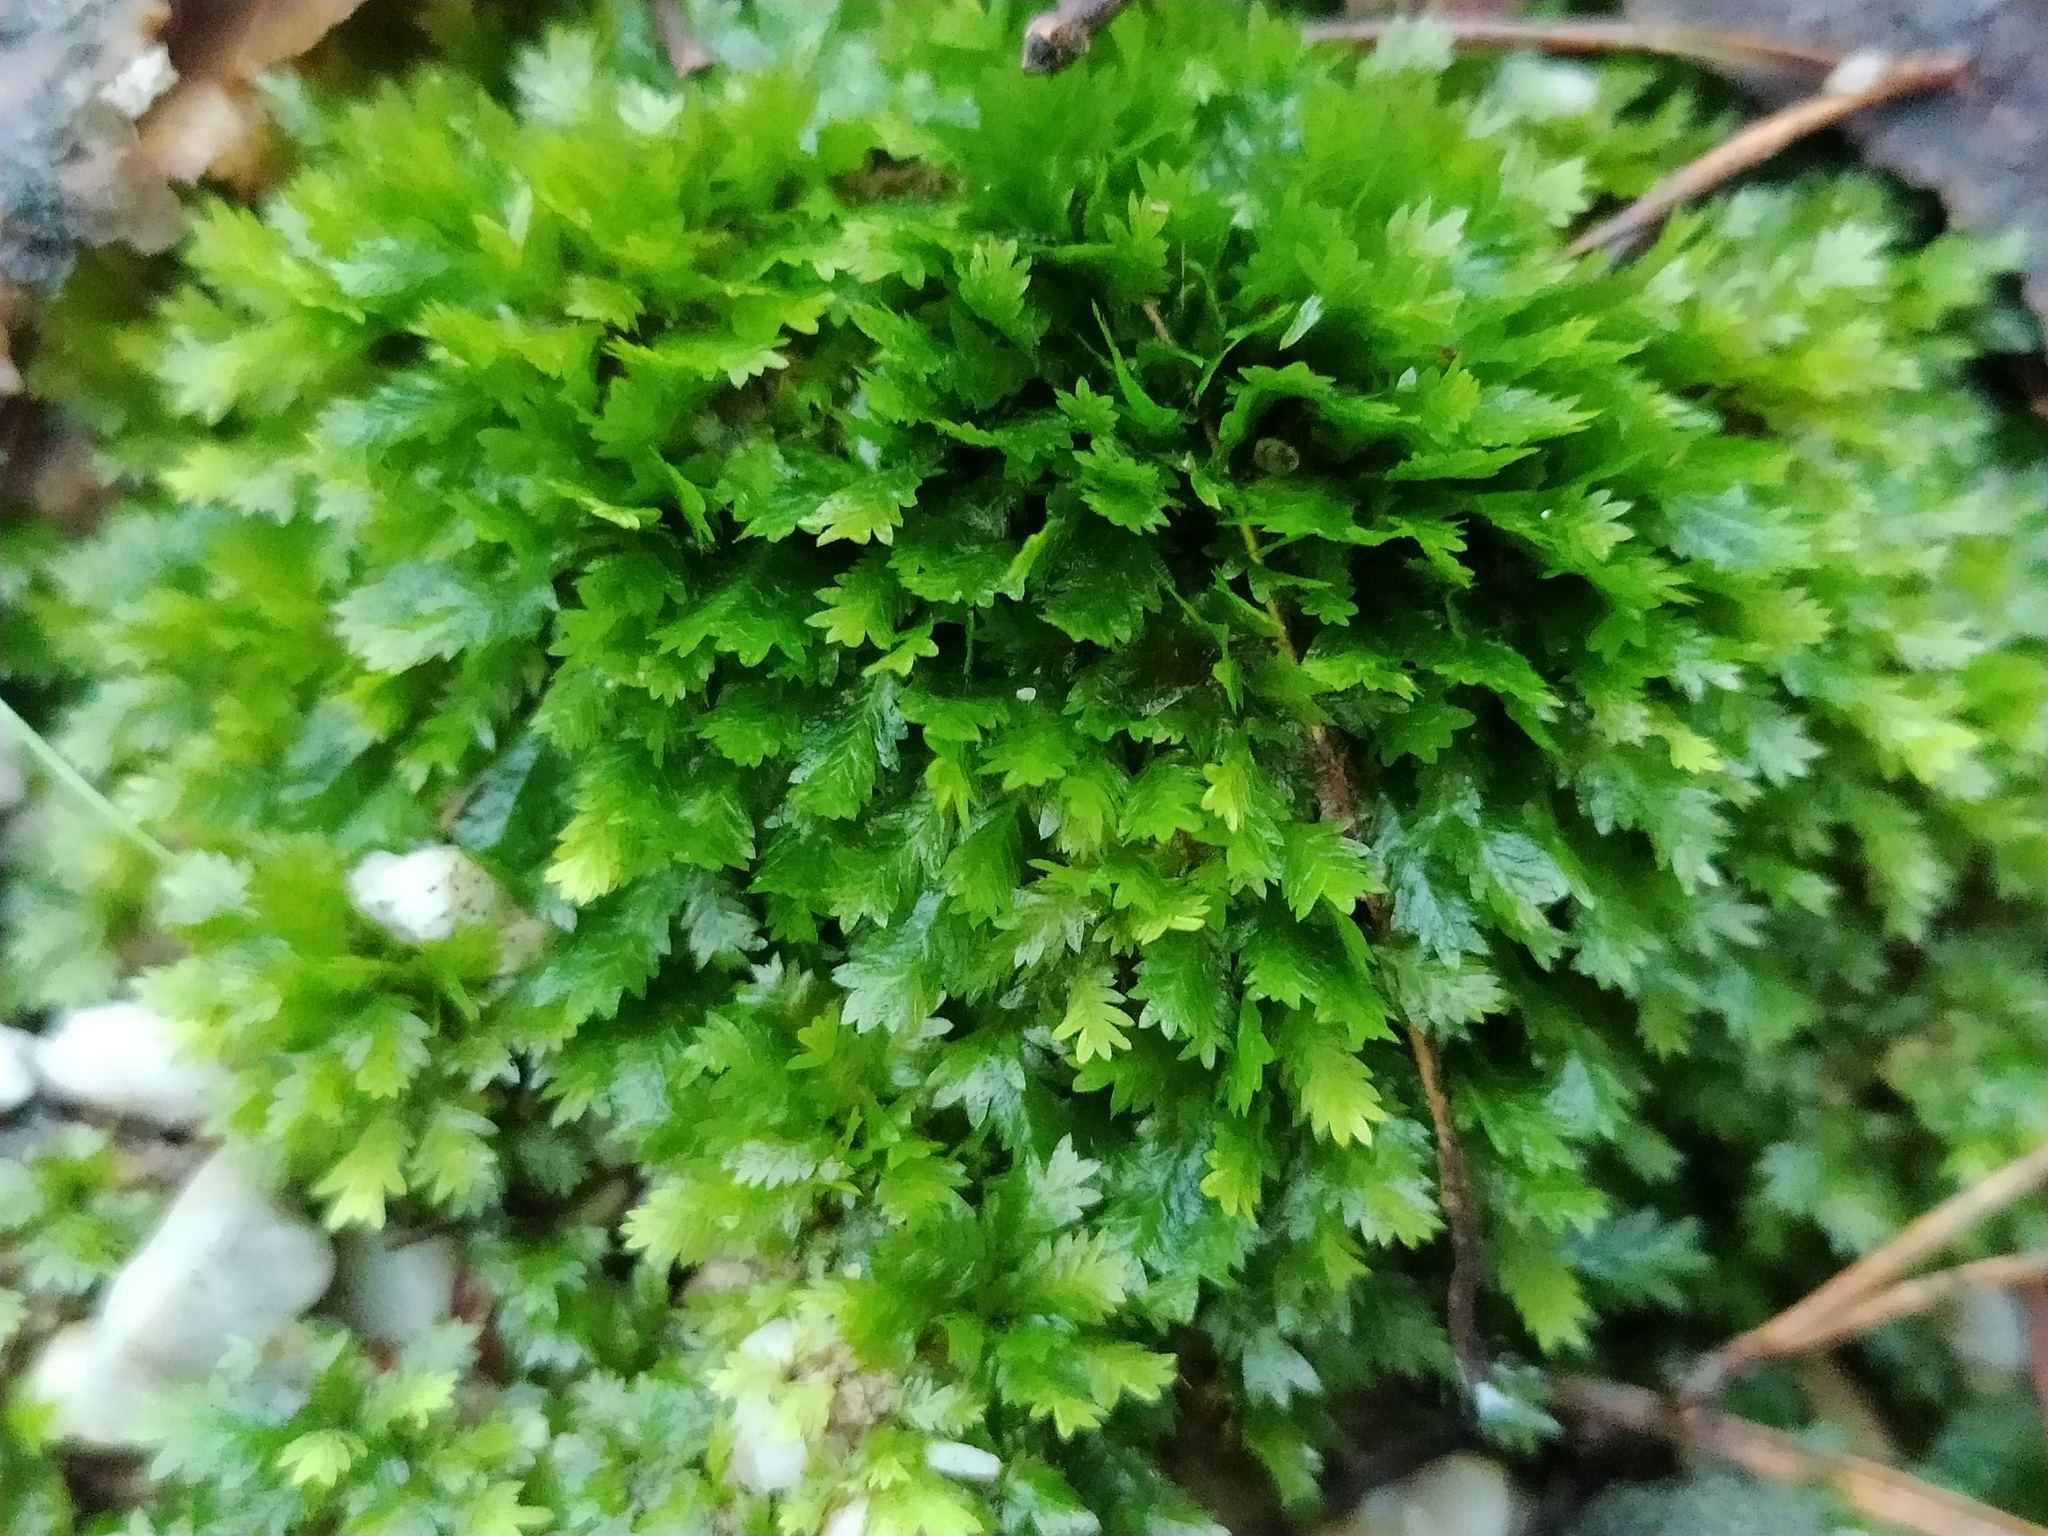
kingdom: Plantae
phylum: Bryophyta
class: Bryopsida
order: Dicranales
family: Fissidentaceae
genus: Fissidens
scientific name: Fissidens taxifolius
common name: Yew-leaved pocket moss
